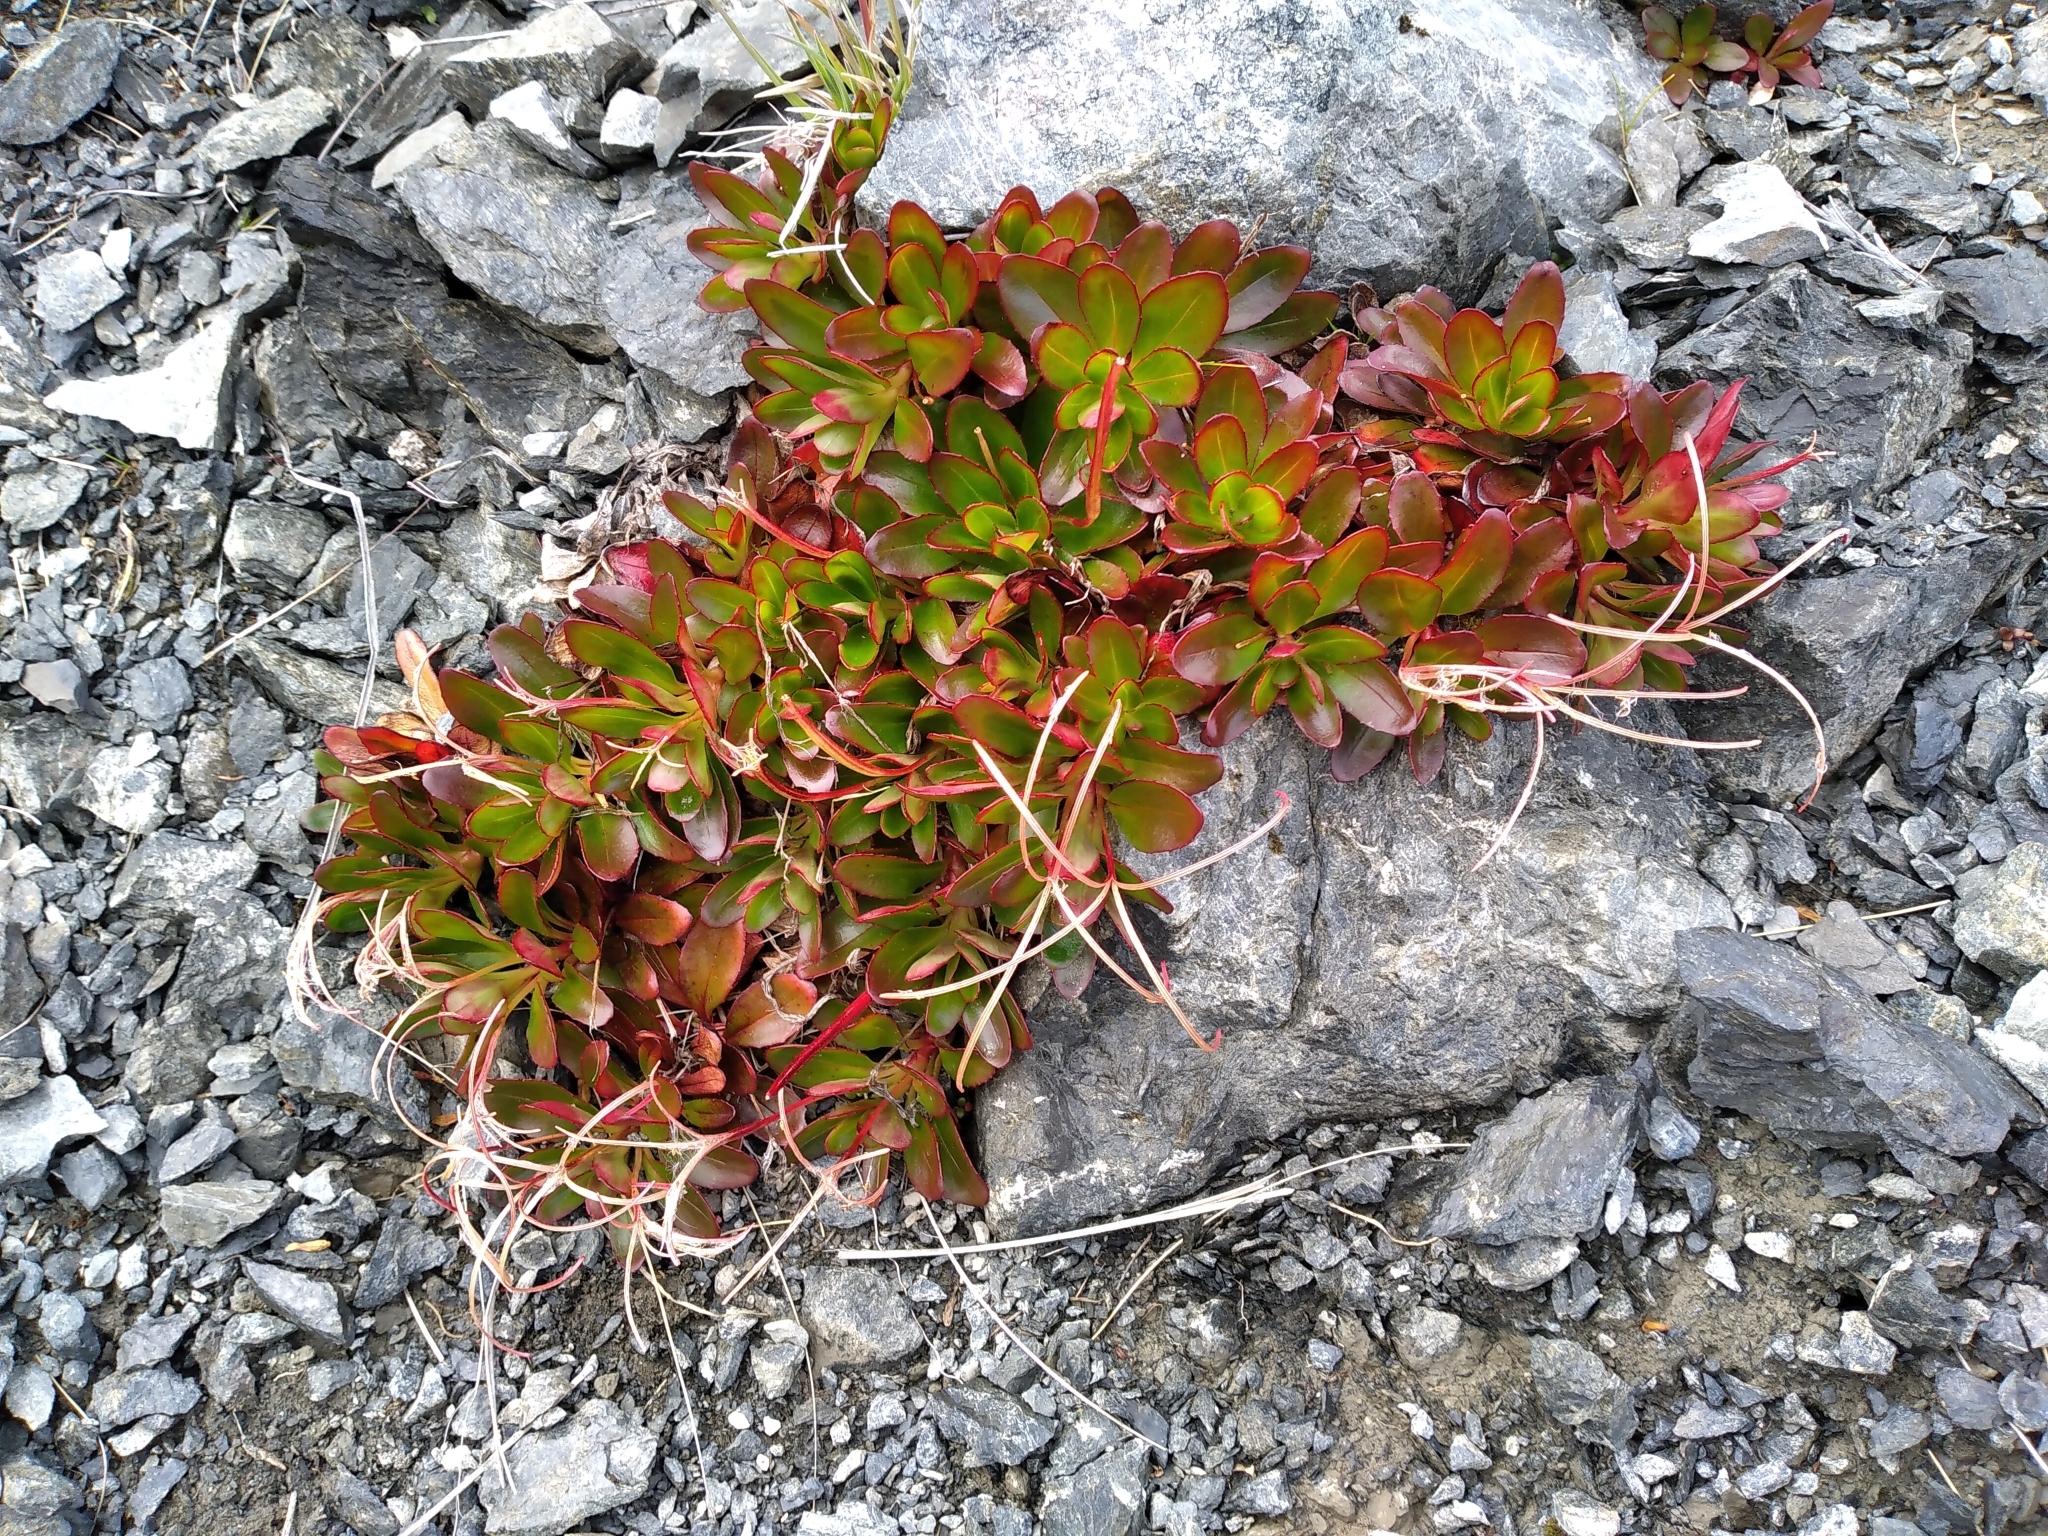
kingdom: Plantae
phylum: Tracheophyta
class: Magnoliopsida
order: Myrtales
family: Onagraceae
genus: Epilobium
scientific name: Epilobium crassum
